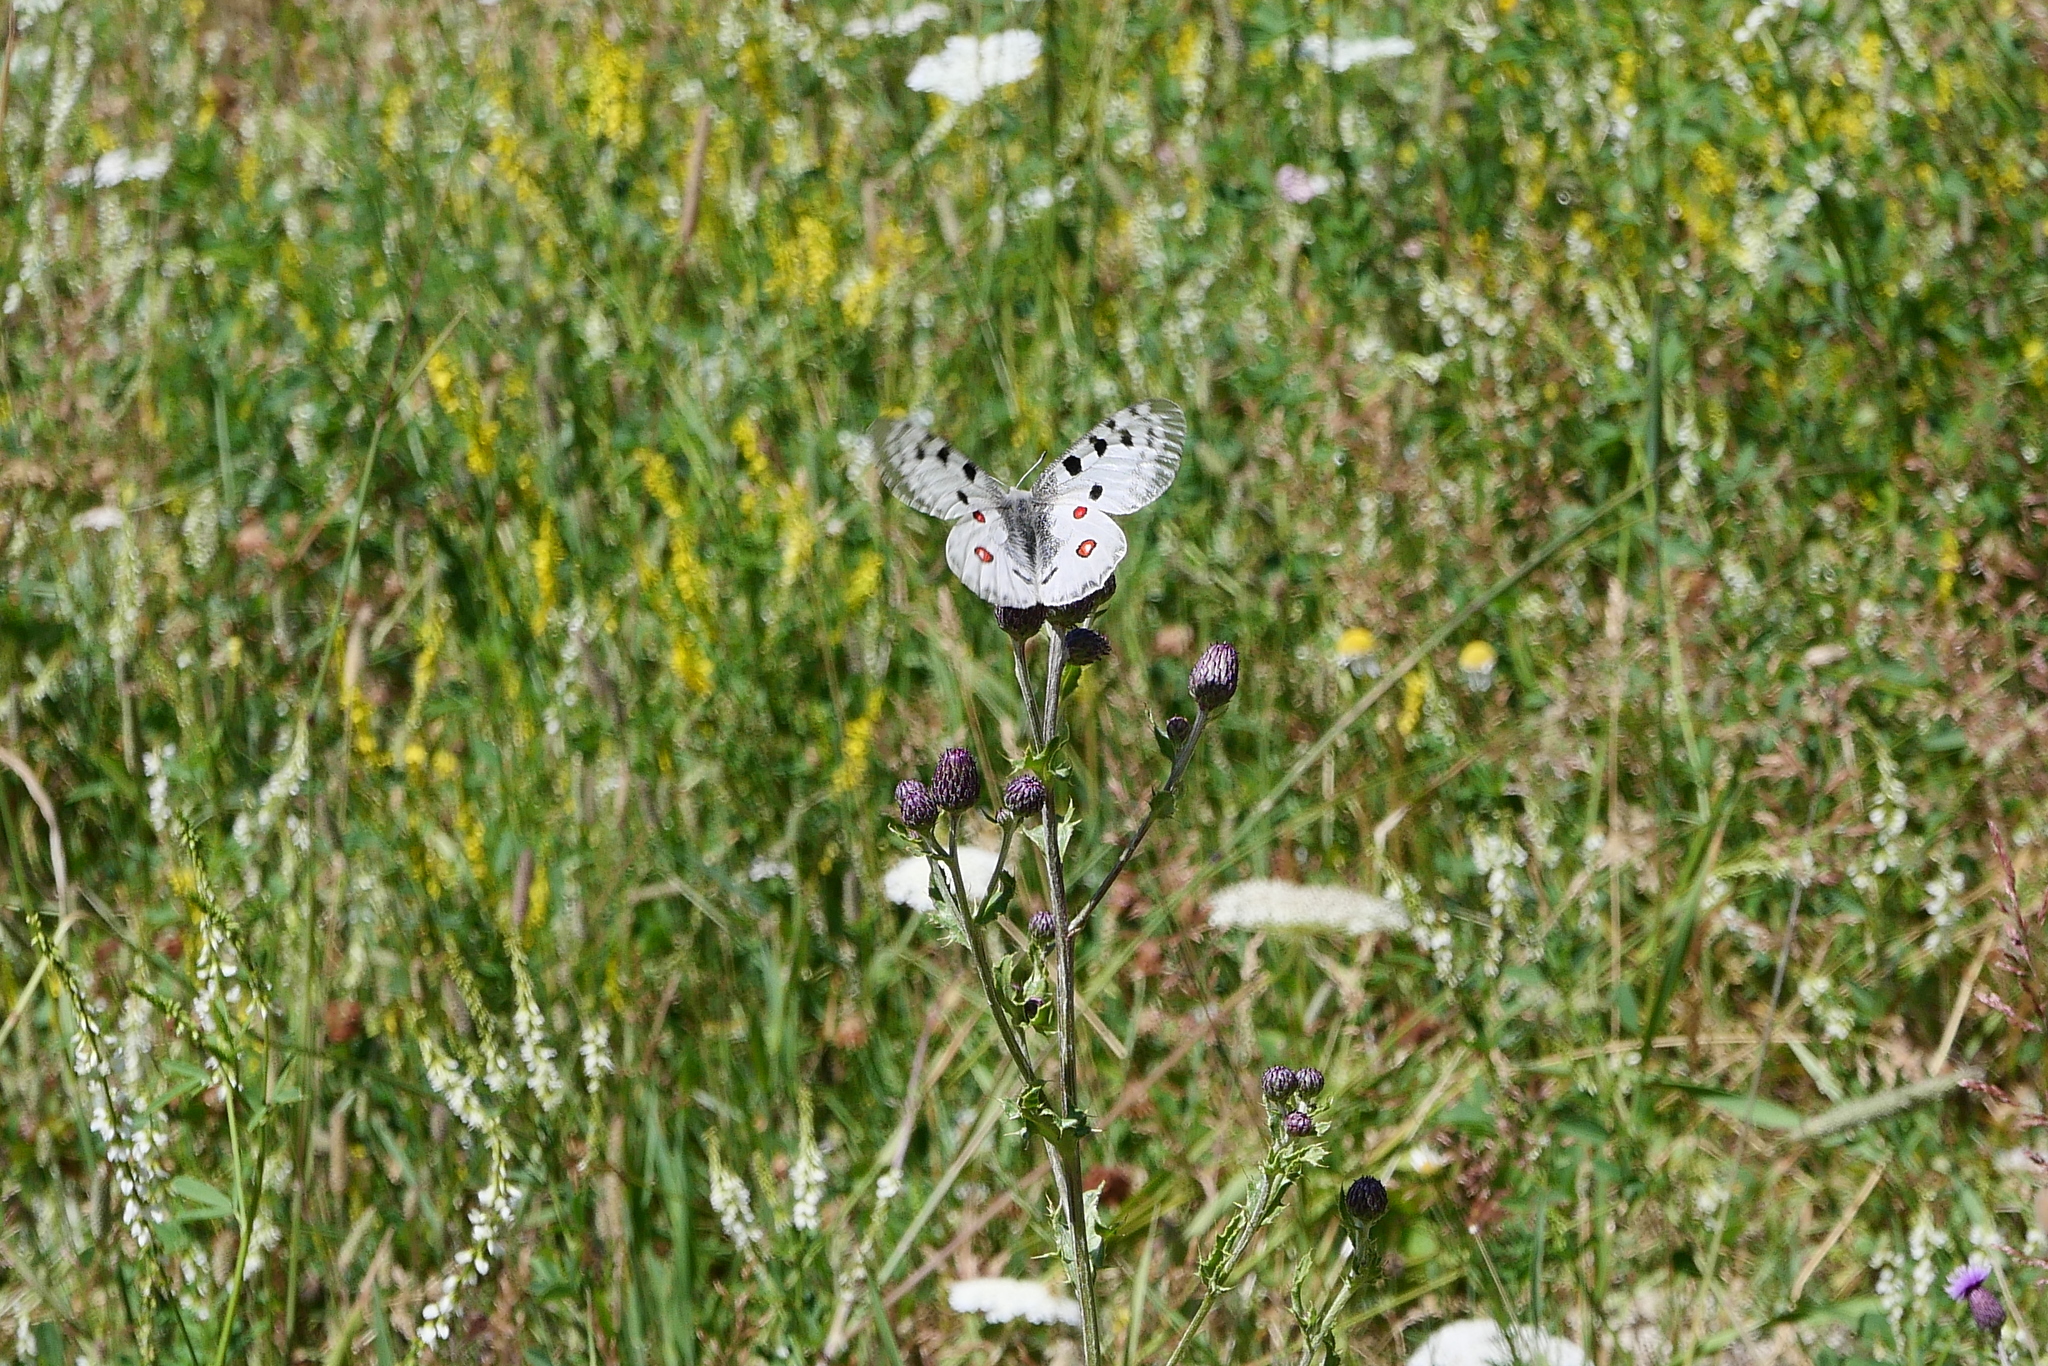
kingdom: Animalia
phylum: Arthropoda
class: Insecta
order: Lepidoptera
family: Papilionidae
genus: Parnassius
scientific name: Parnassius apollo
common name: Apollo
